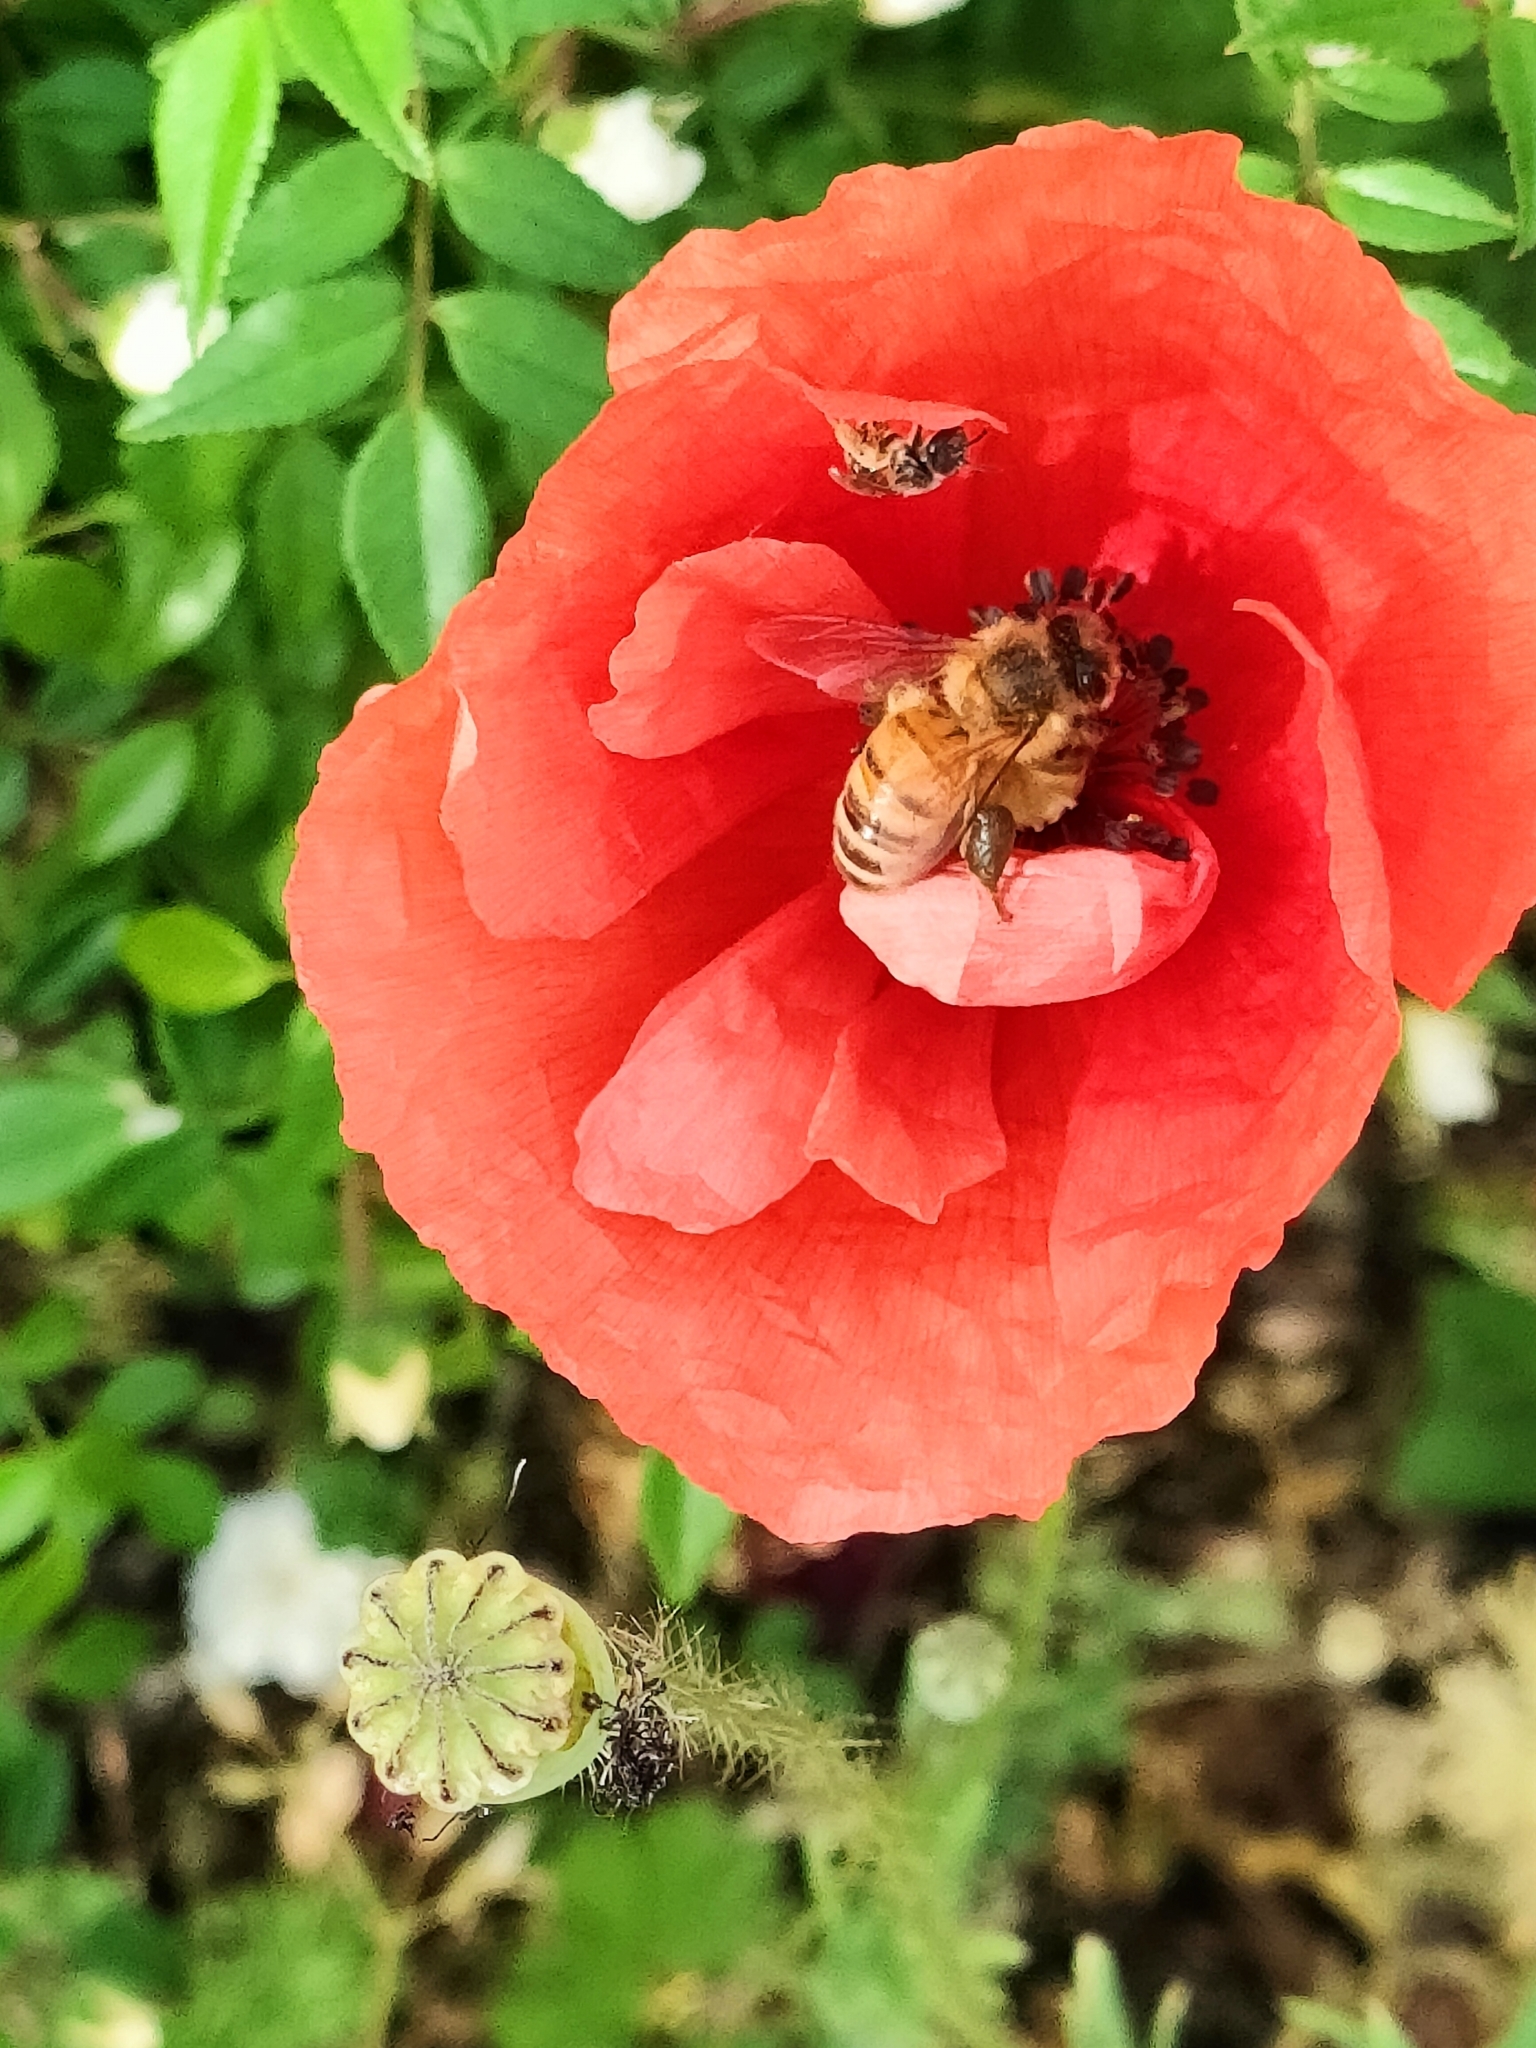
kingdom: Animalia
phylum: Arthropoda
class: Insecta
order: Hymenoptera
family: Apidae
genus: Apis
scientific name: Apis mellifera
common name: Honey bee
